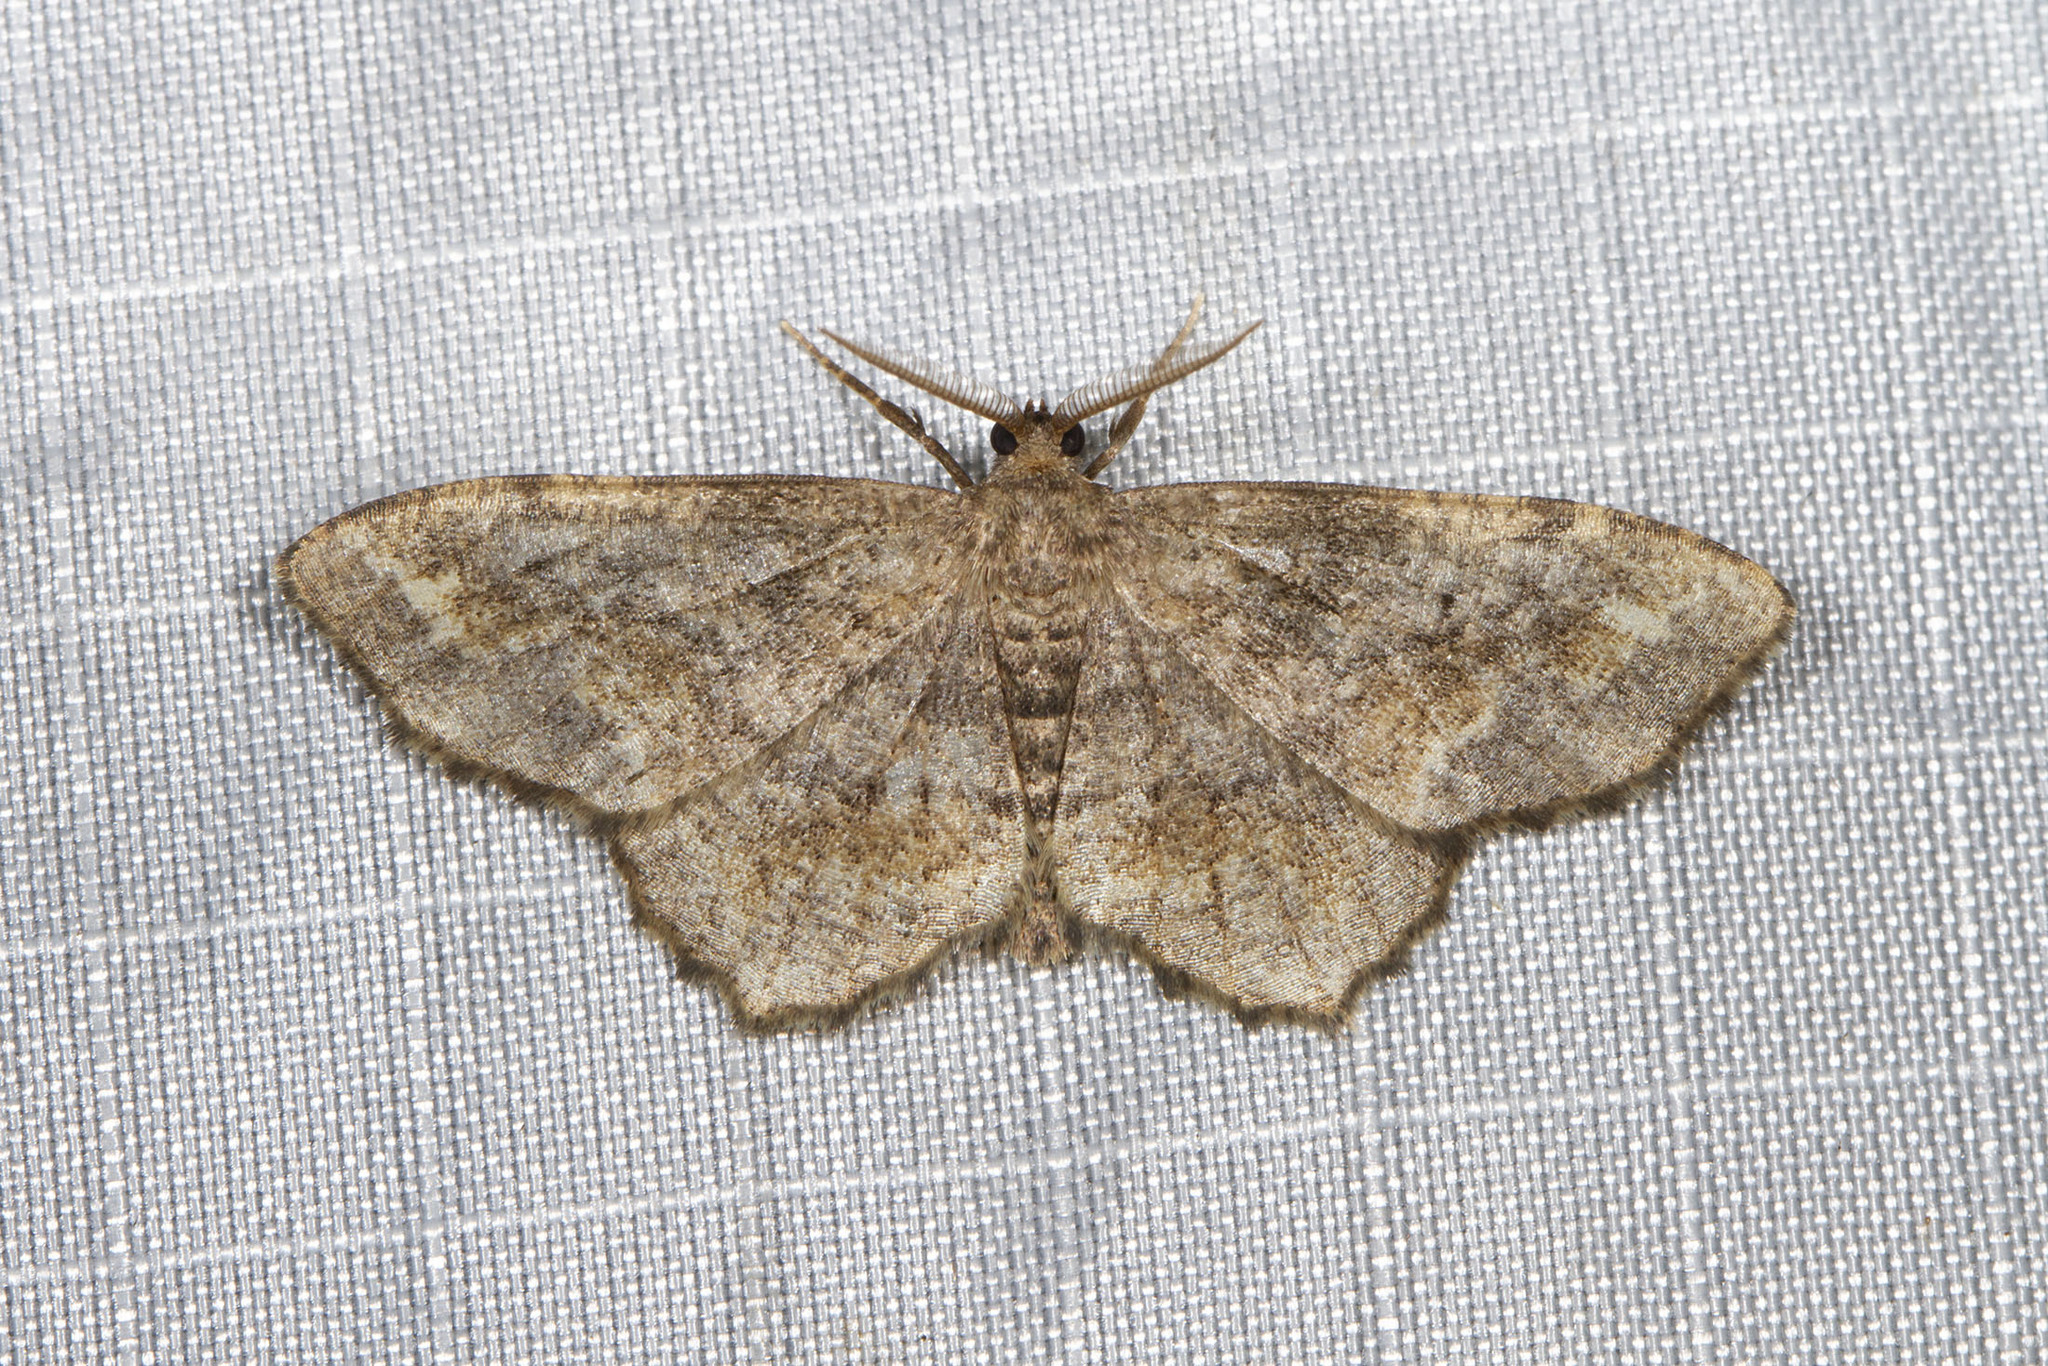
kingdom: Animalia
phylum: Arthropoda
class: Insecta
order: Lepidoptera
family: Geometridae
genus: Hypagyrtis
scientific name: Hypagyrtis unipunctata
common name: One-spotted variant
